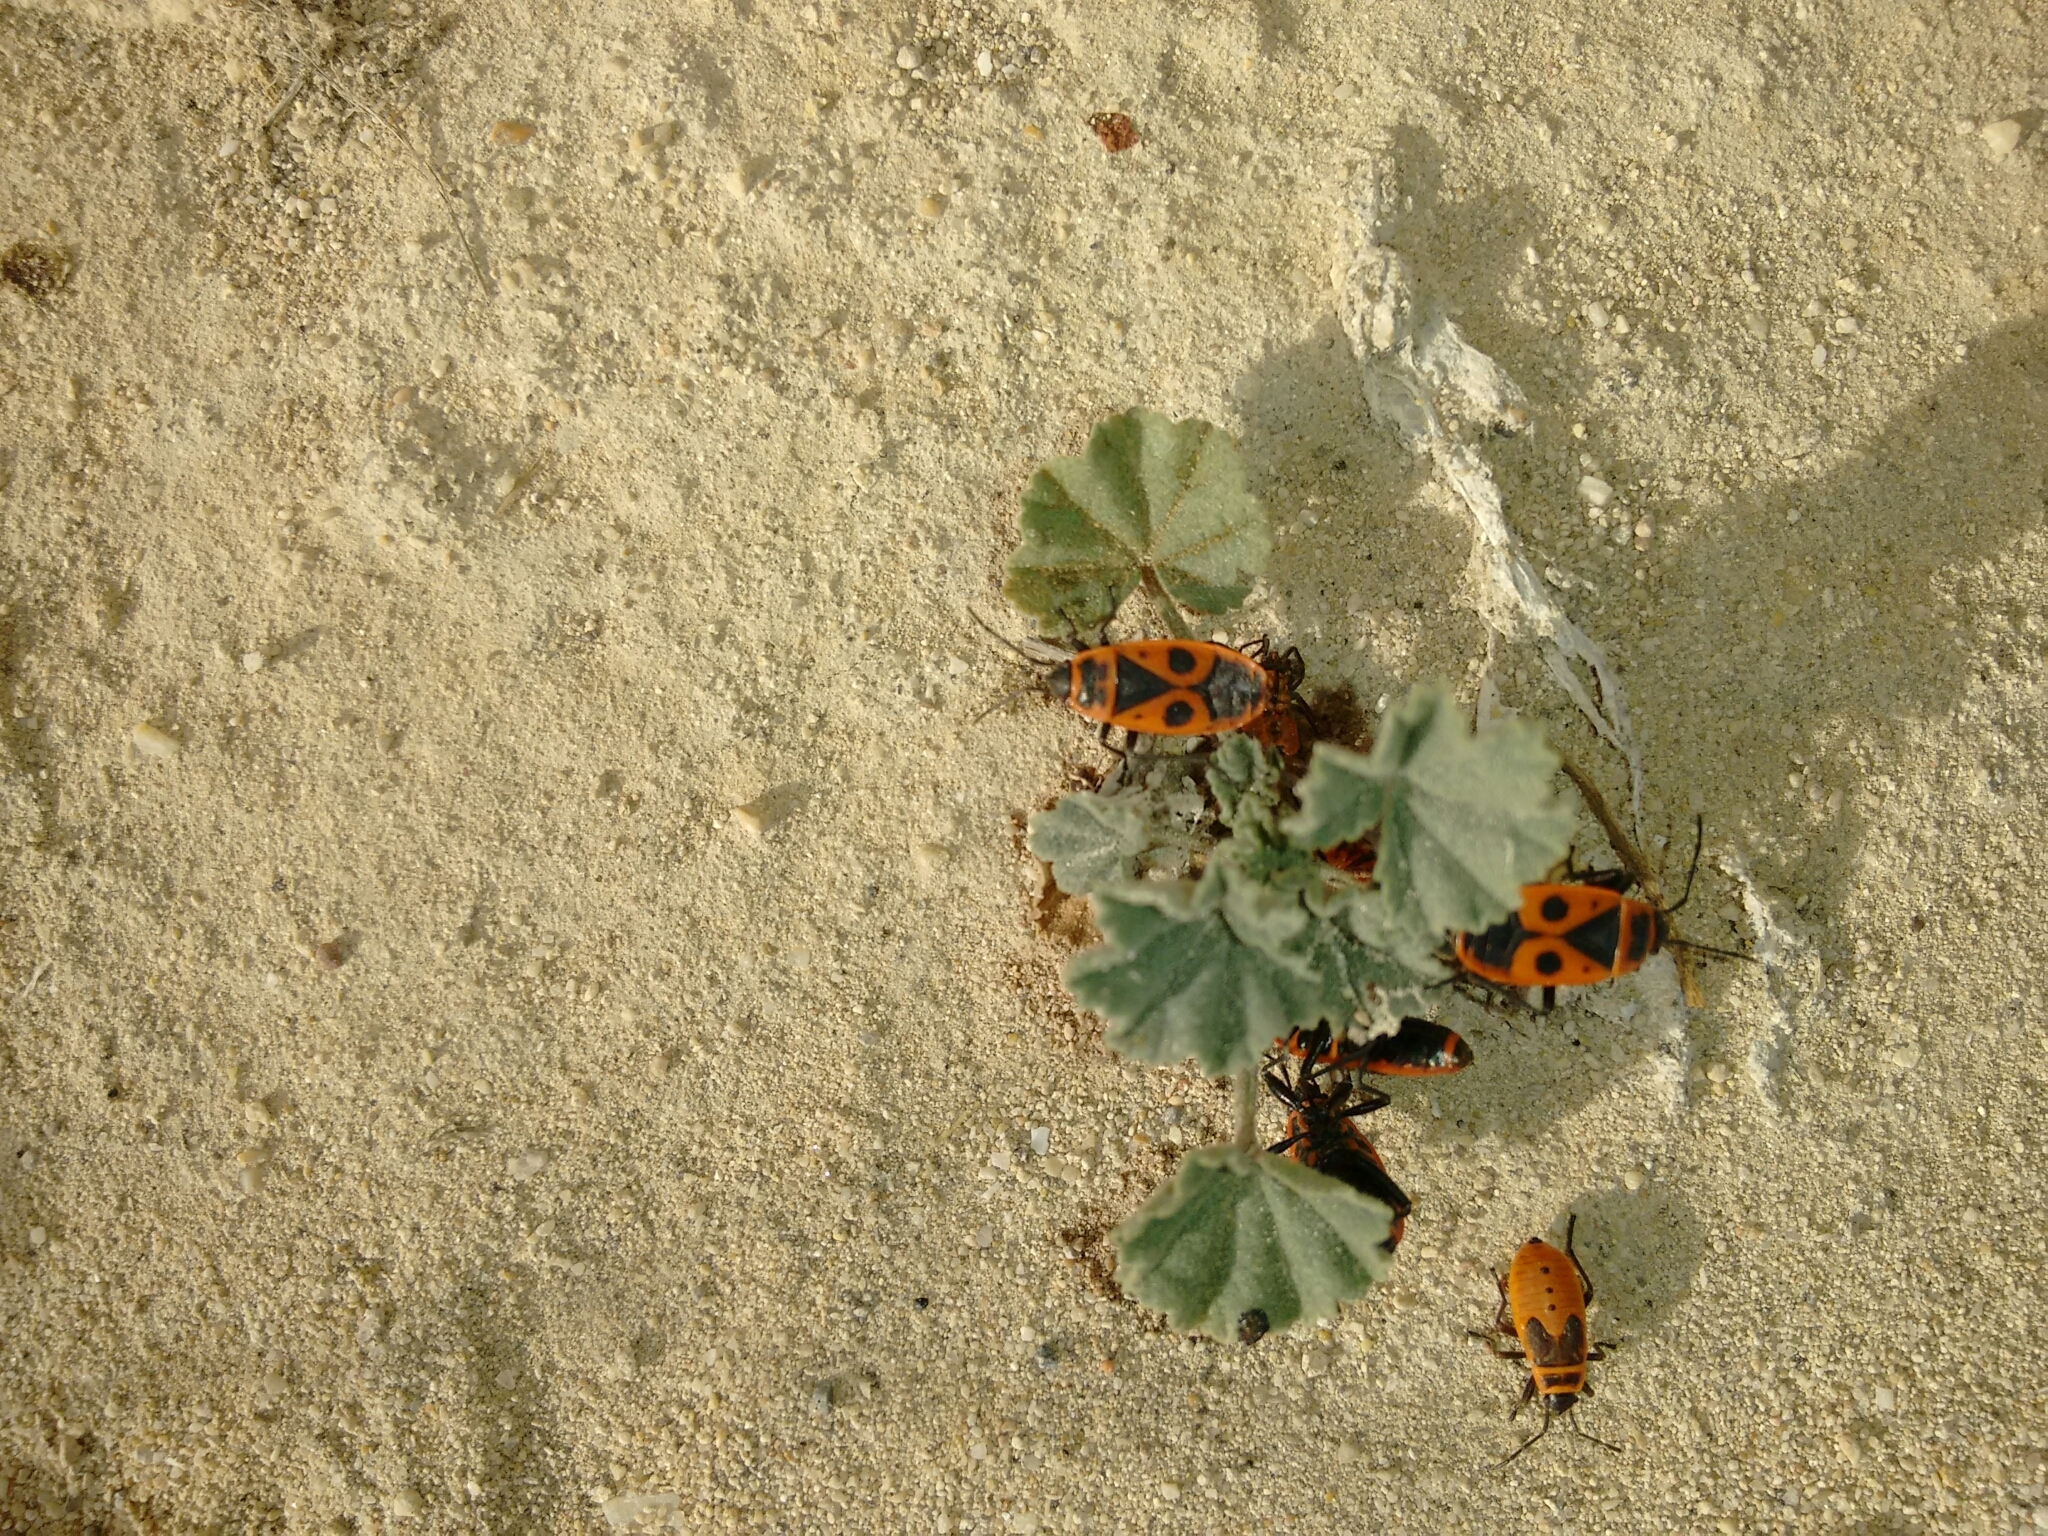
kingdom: Animalia
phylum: Arthropoda
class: Insecta
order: Hemiptera
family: Pyrrhocoridae
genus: Pyrrhocoris
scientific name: Pyrrhocoris apterus
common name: Firebug
